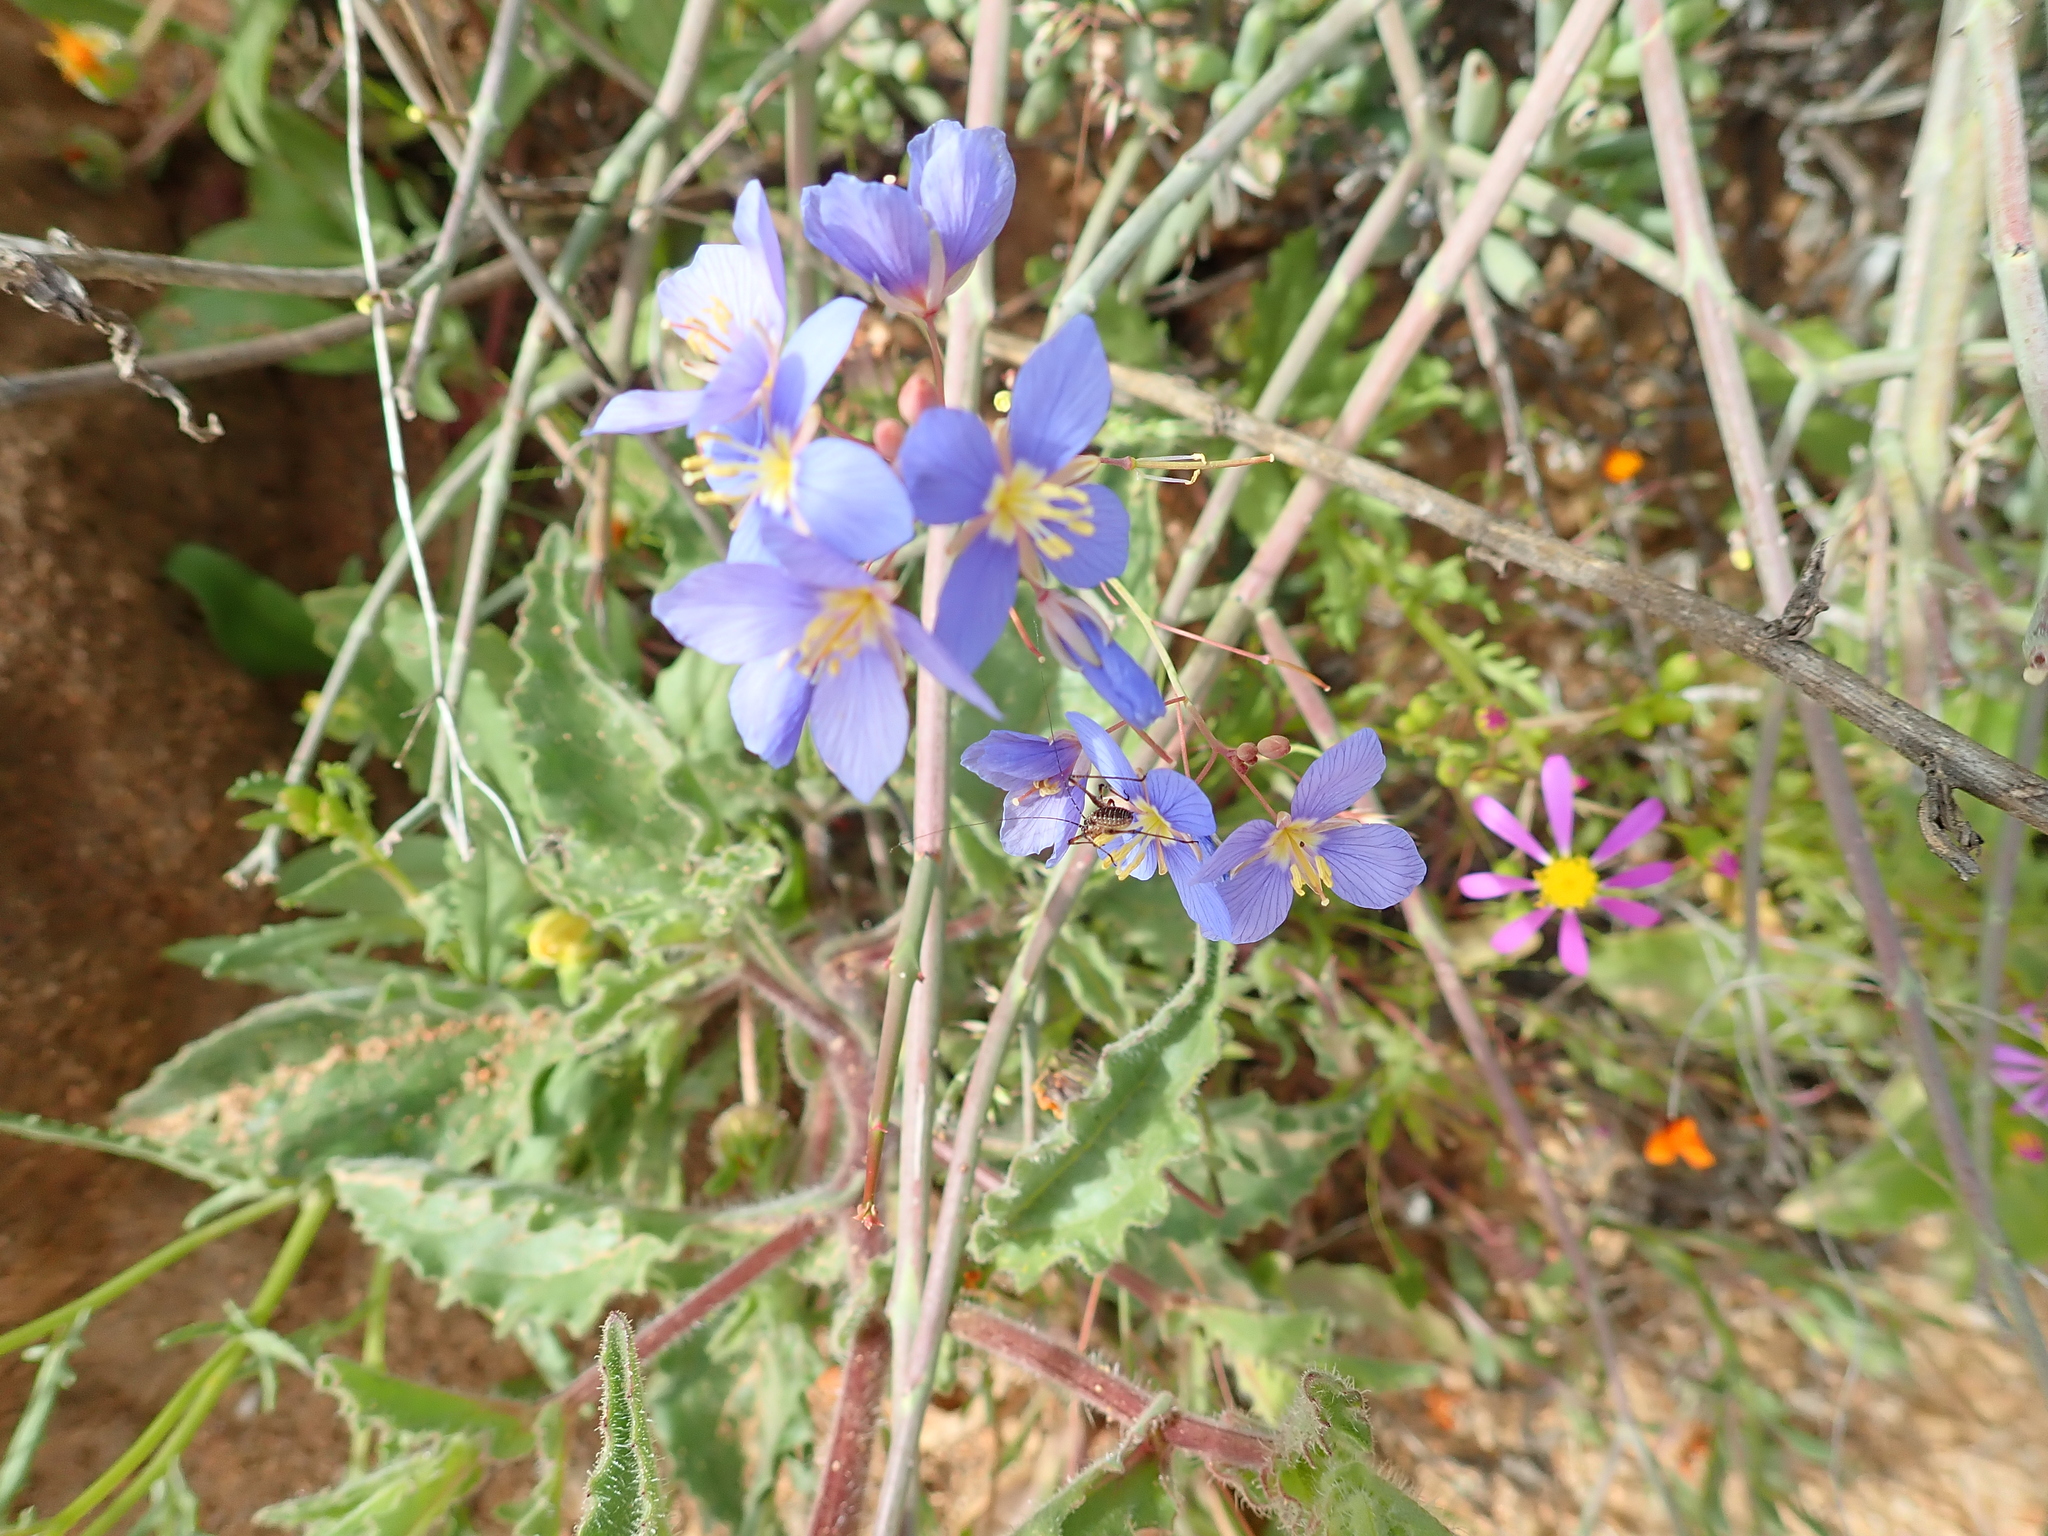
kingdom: Plantae
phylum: Tracheophyta
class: Magnoliopsida
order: Brassicales
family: Brassicaceae
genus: Heliophila
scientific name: Heliophila lactea
